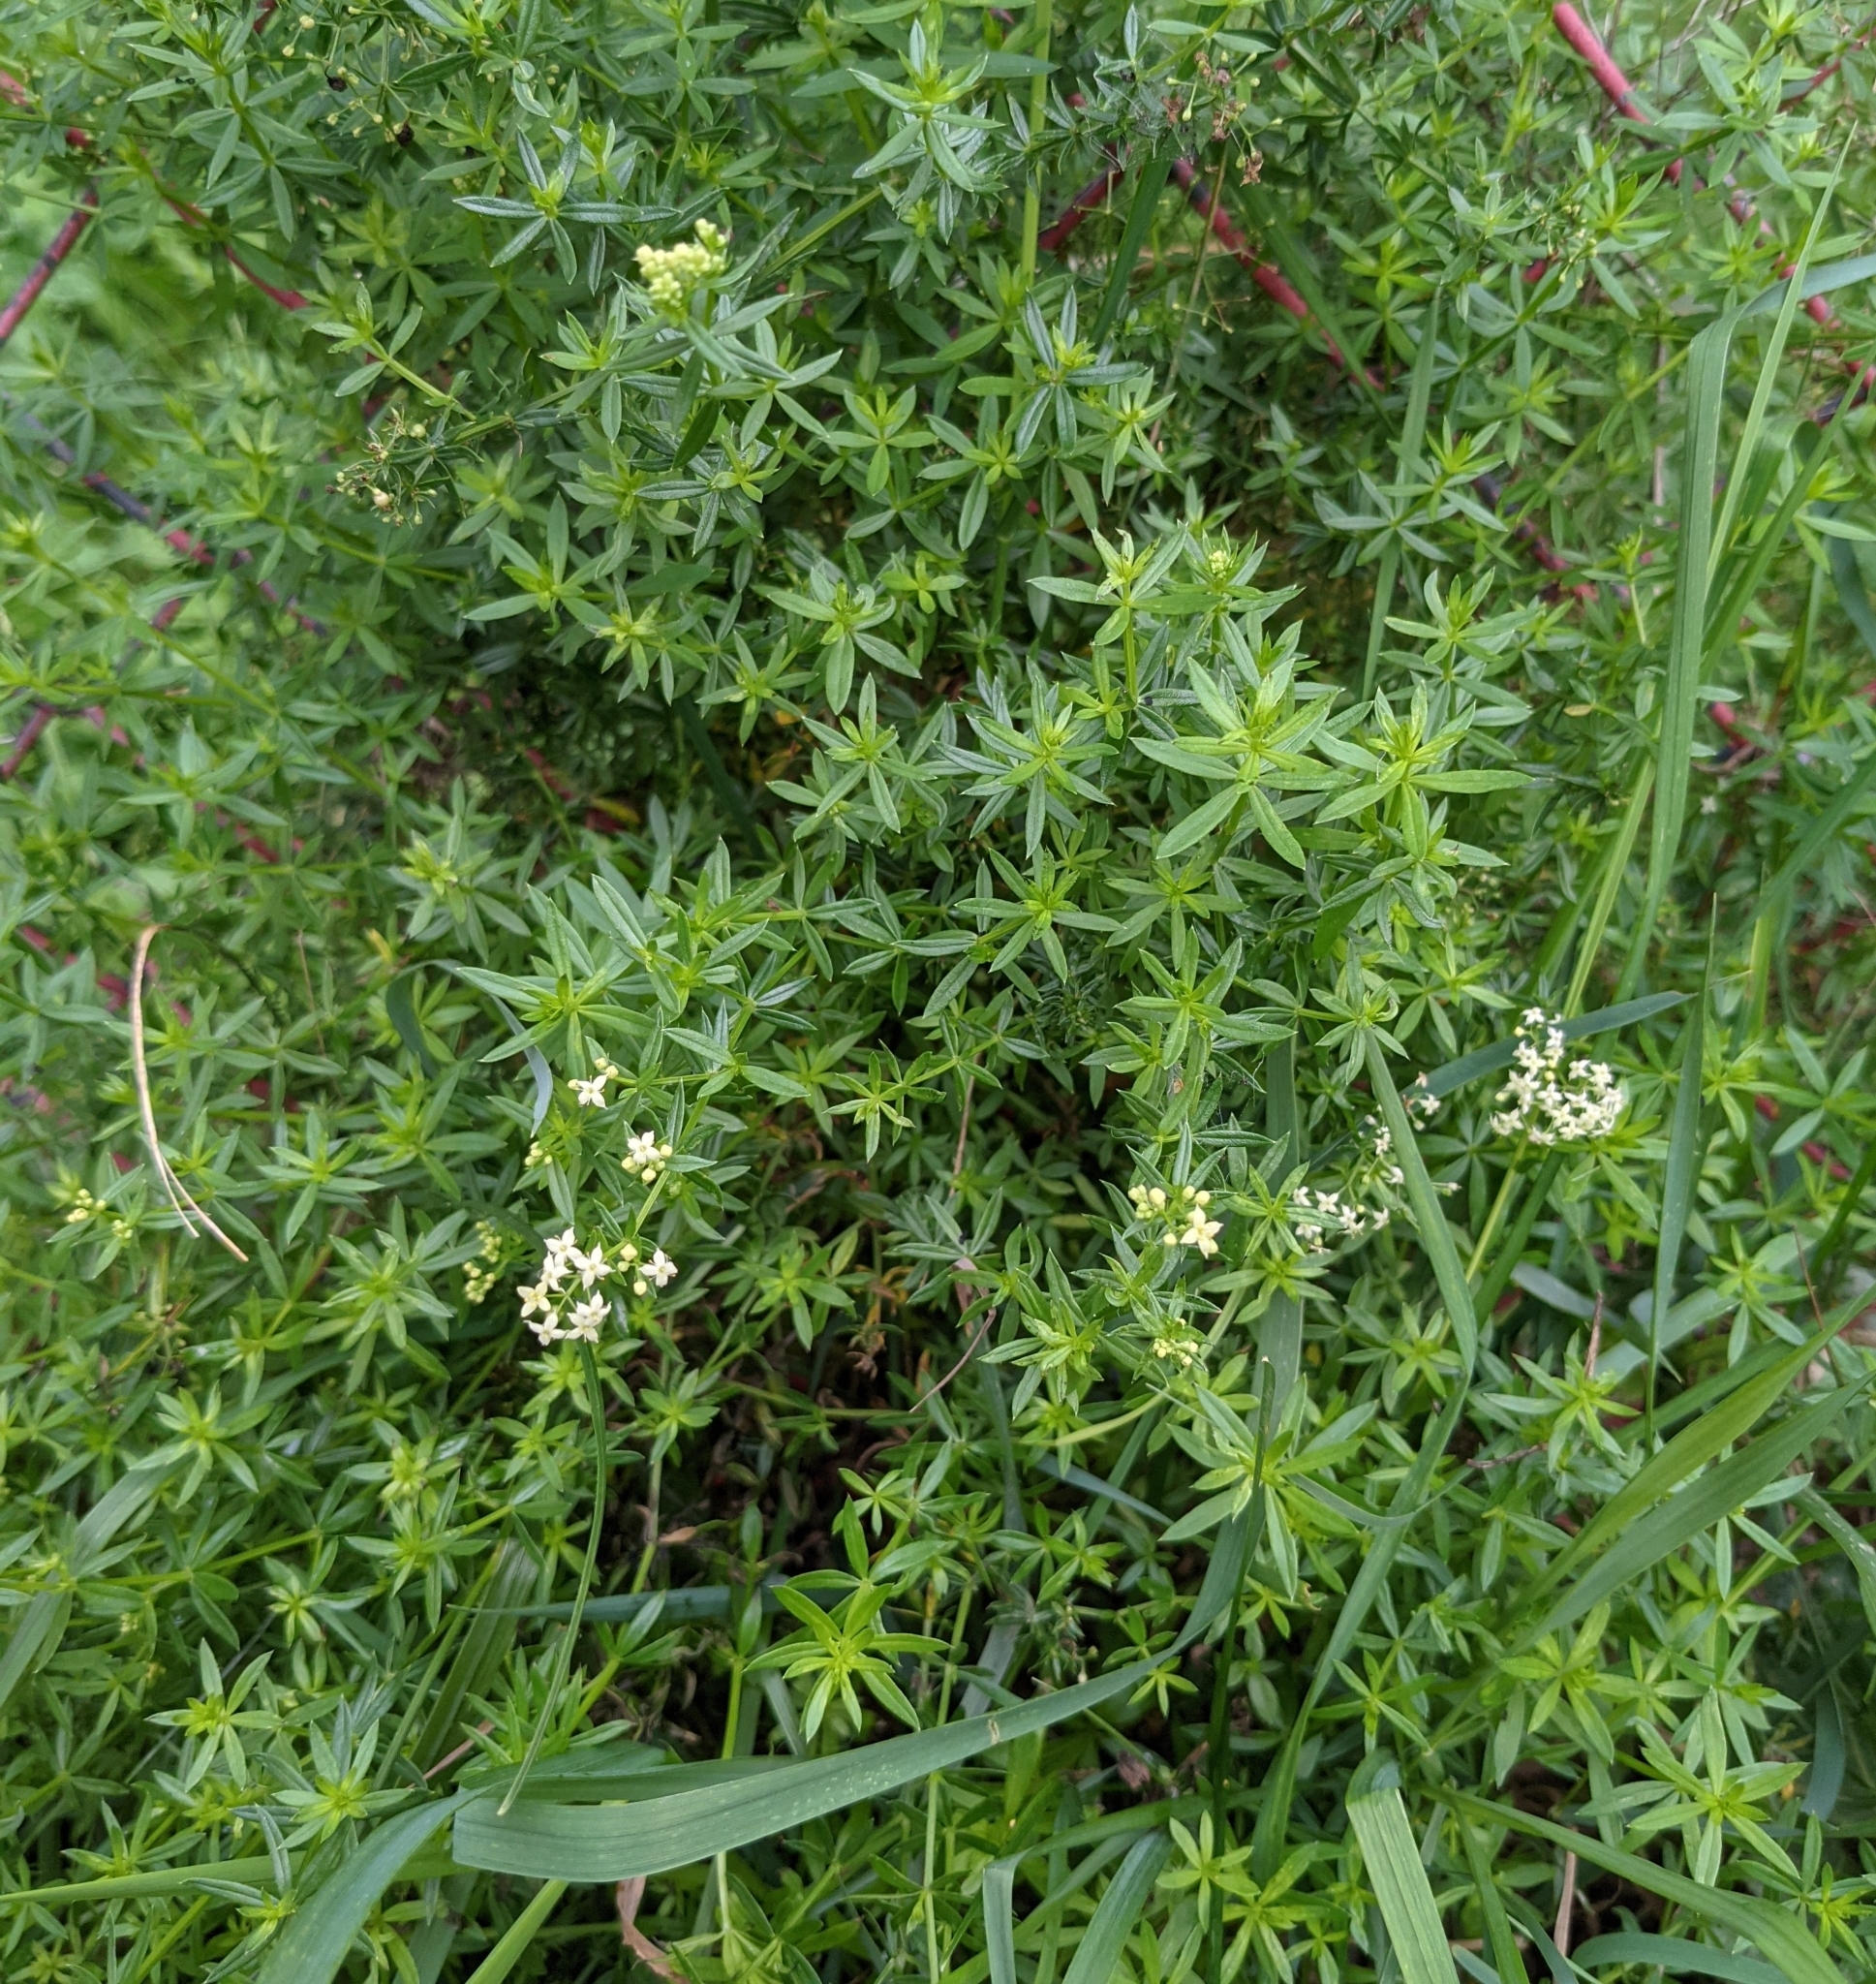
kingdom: Plantae
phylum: Tracheophyta
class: Magnoliopsida
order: Gentianales
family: Rubiaceae
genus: Galium
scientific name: Galium mollugo
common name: Hedge bedstraw
